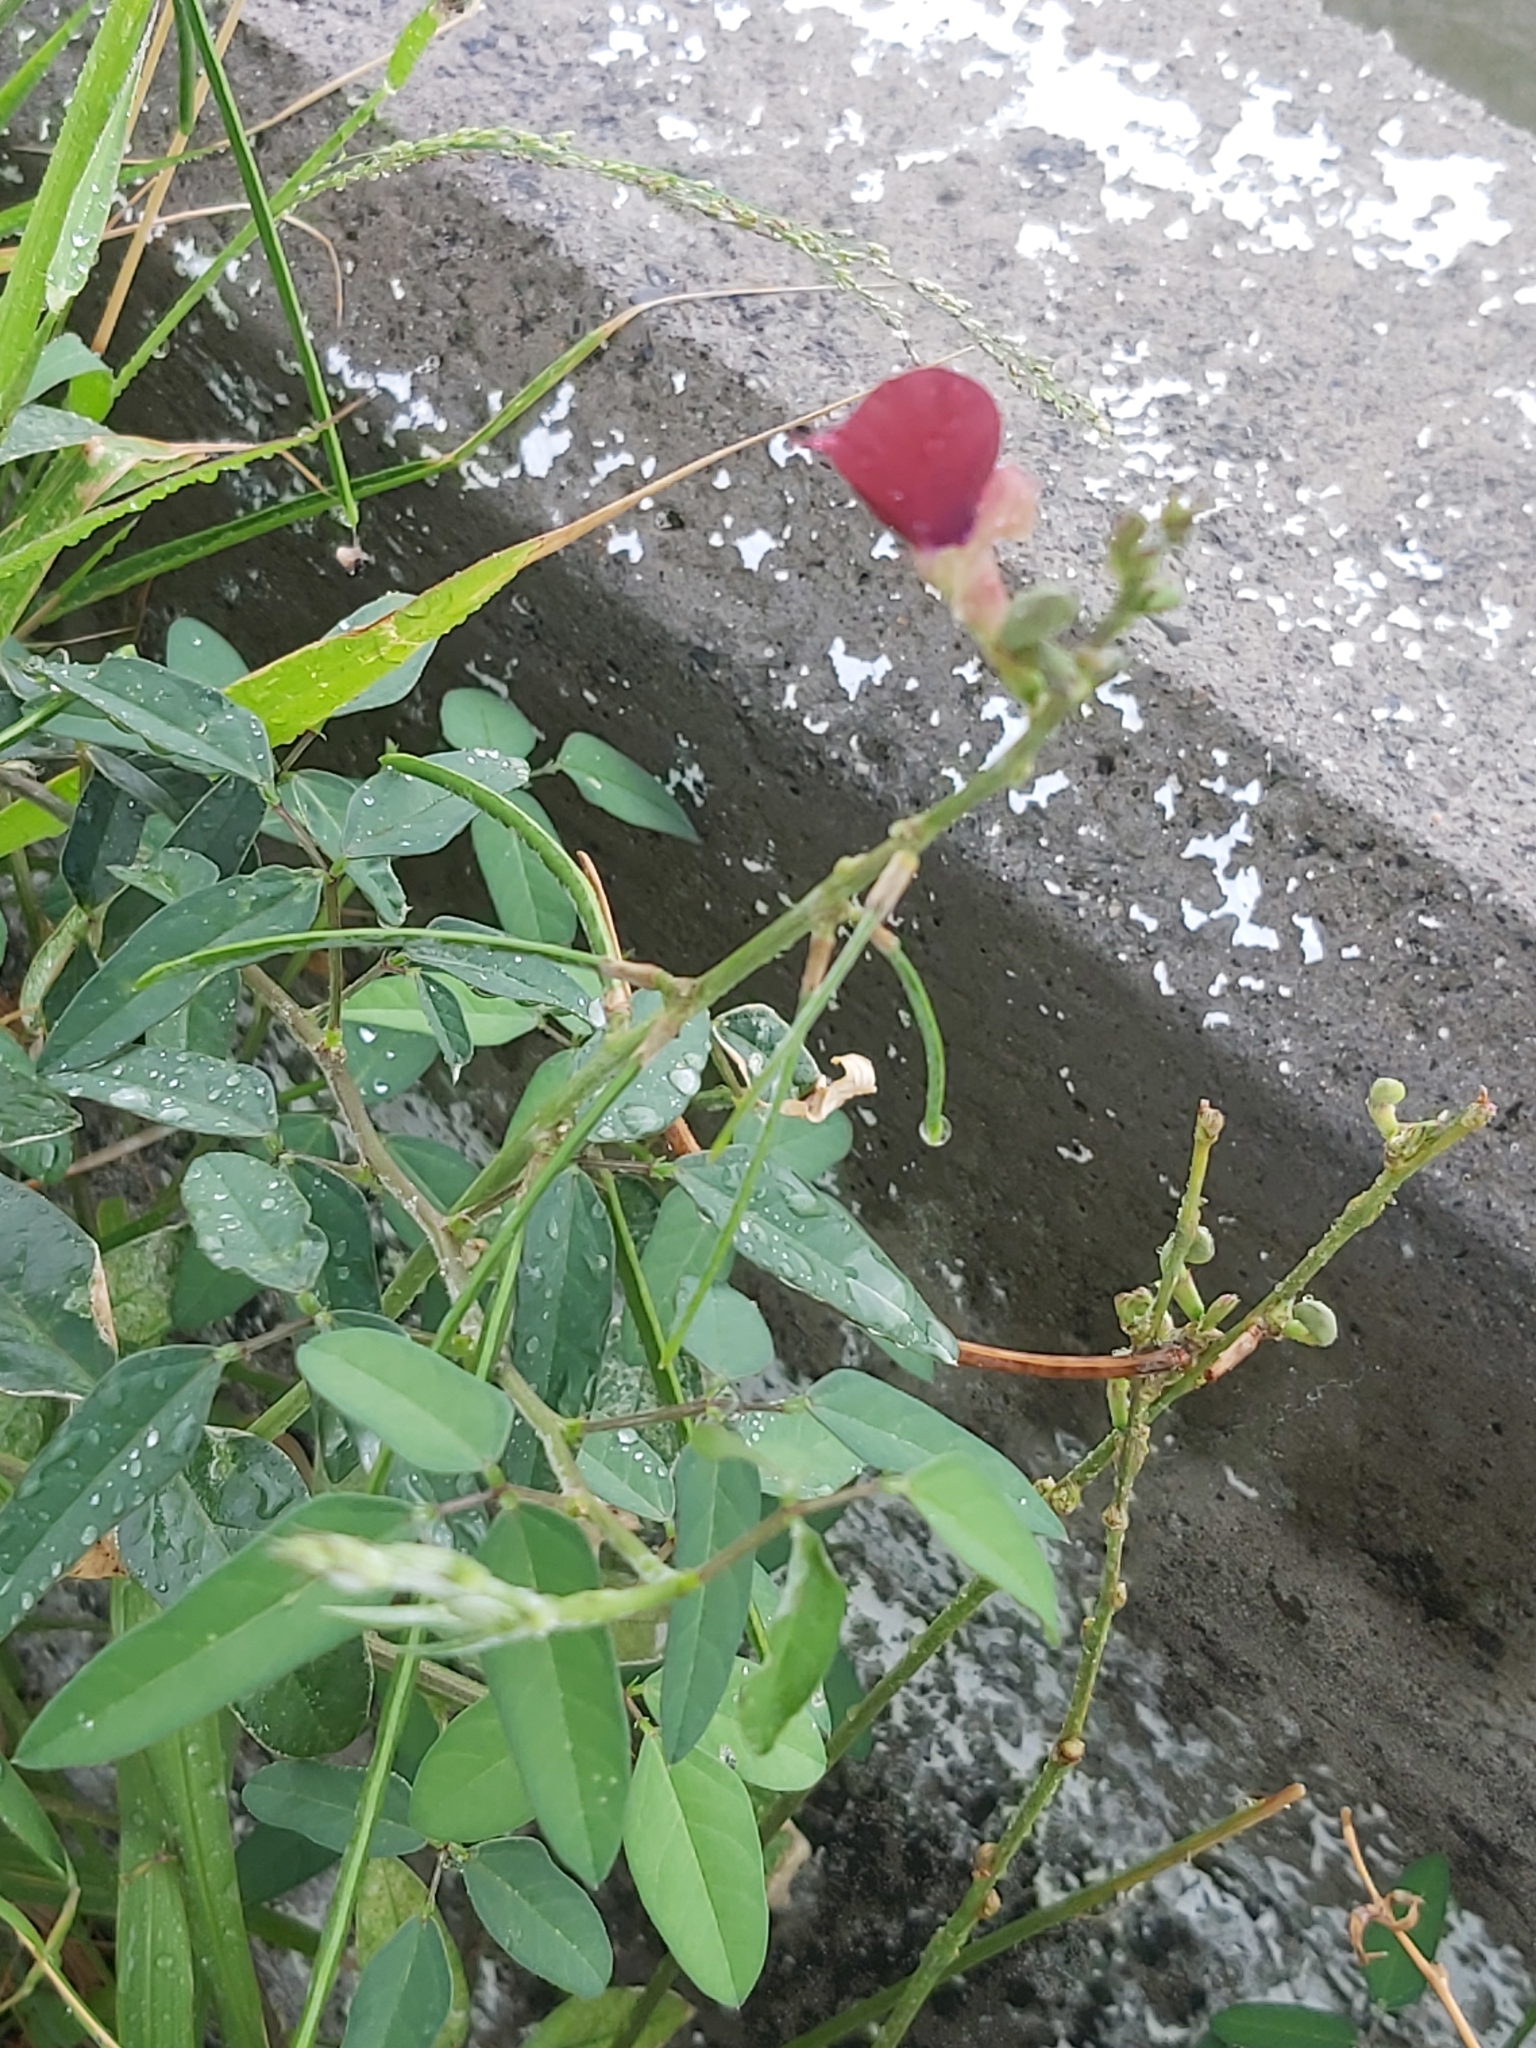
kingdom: Plantae
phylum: Tracheophyta
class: Magnoliopsida
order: Fabales
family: Fabaceae
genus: Macroptilium
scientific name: Macroptilium lathyroides
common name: Wild bushbean
